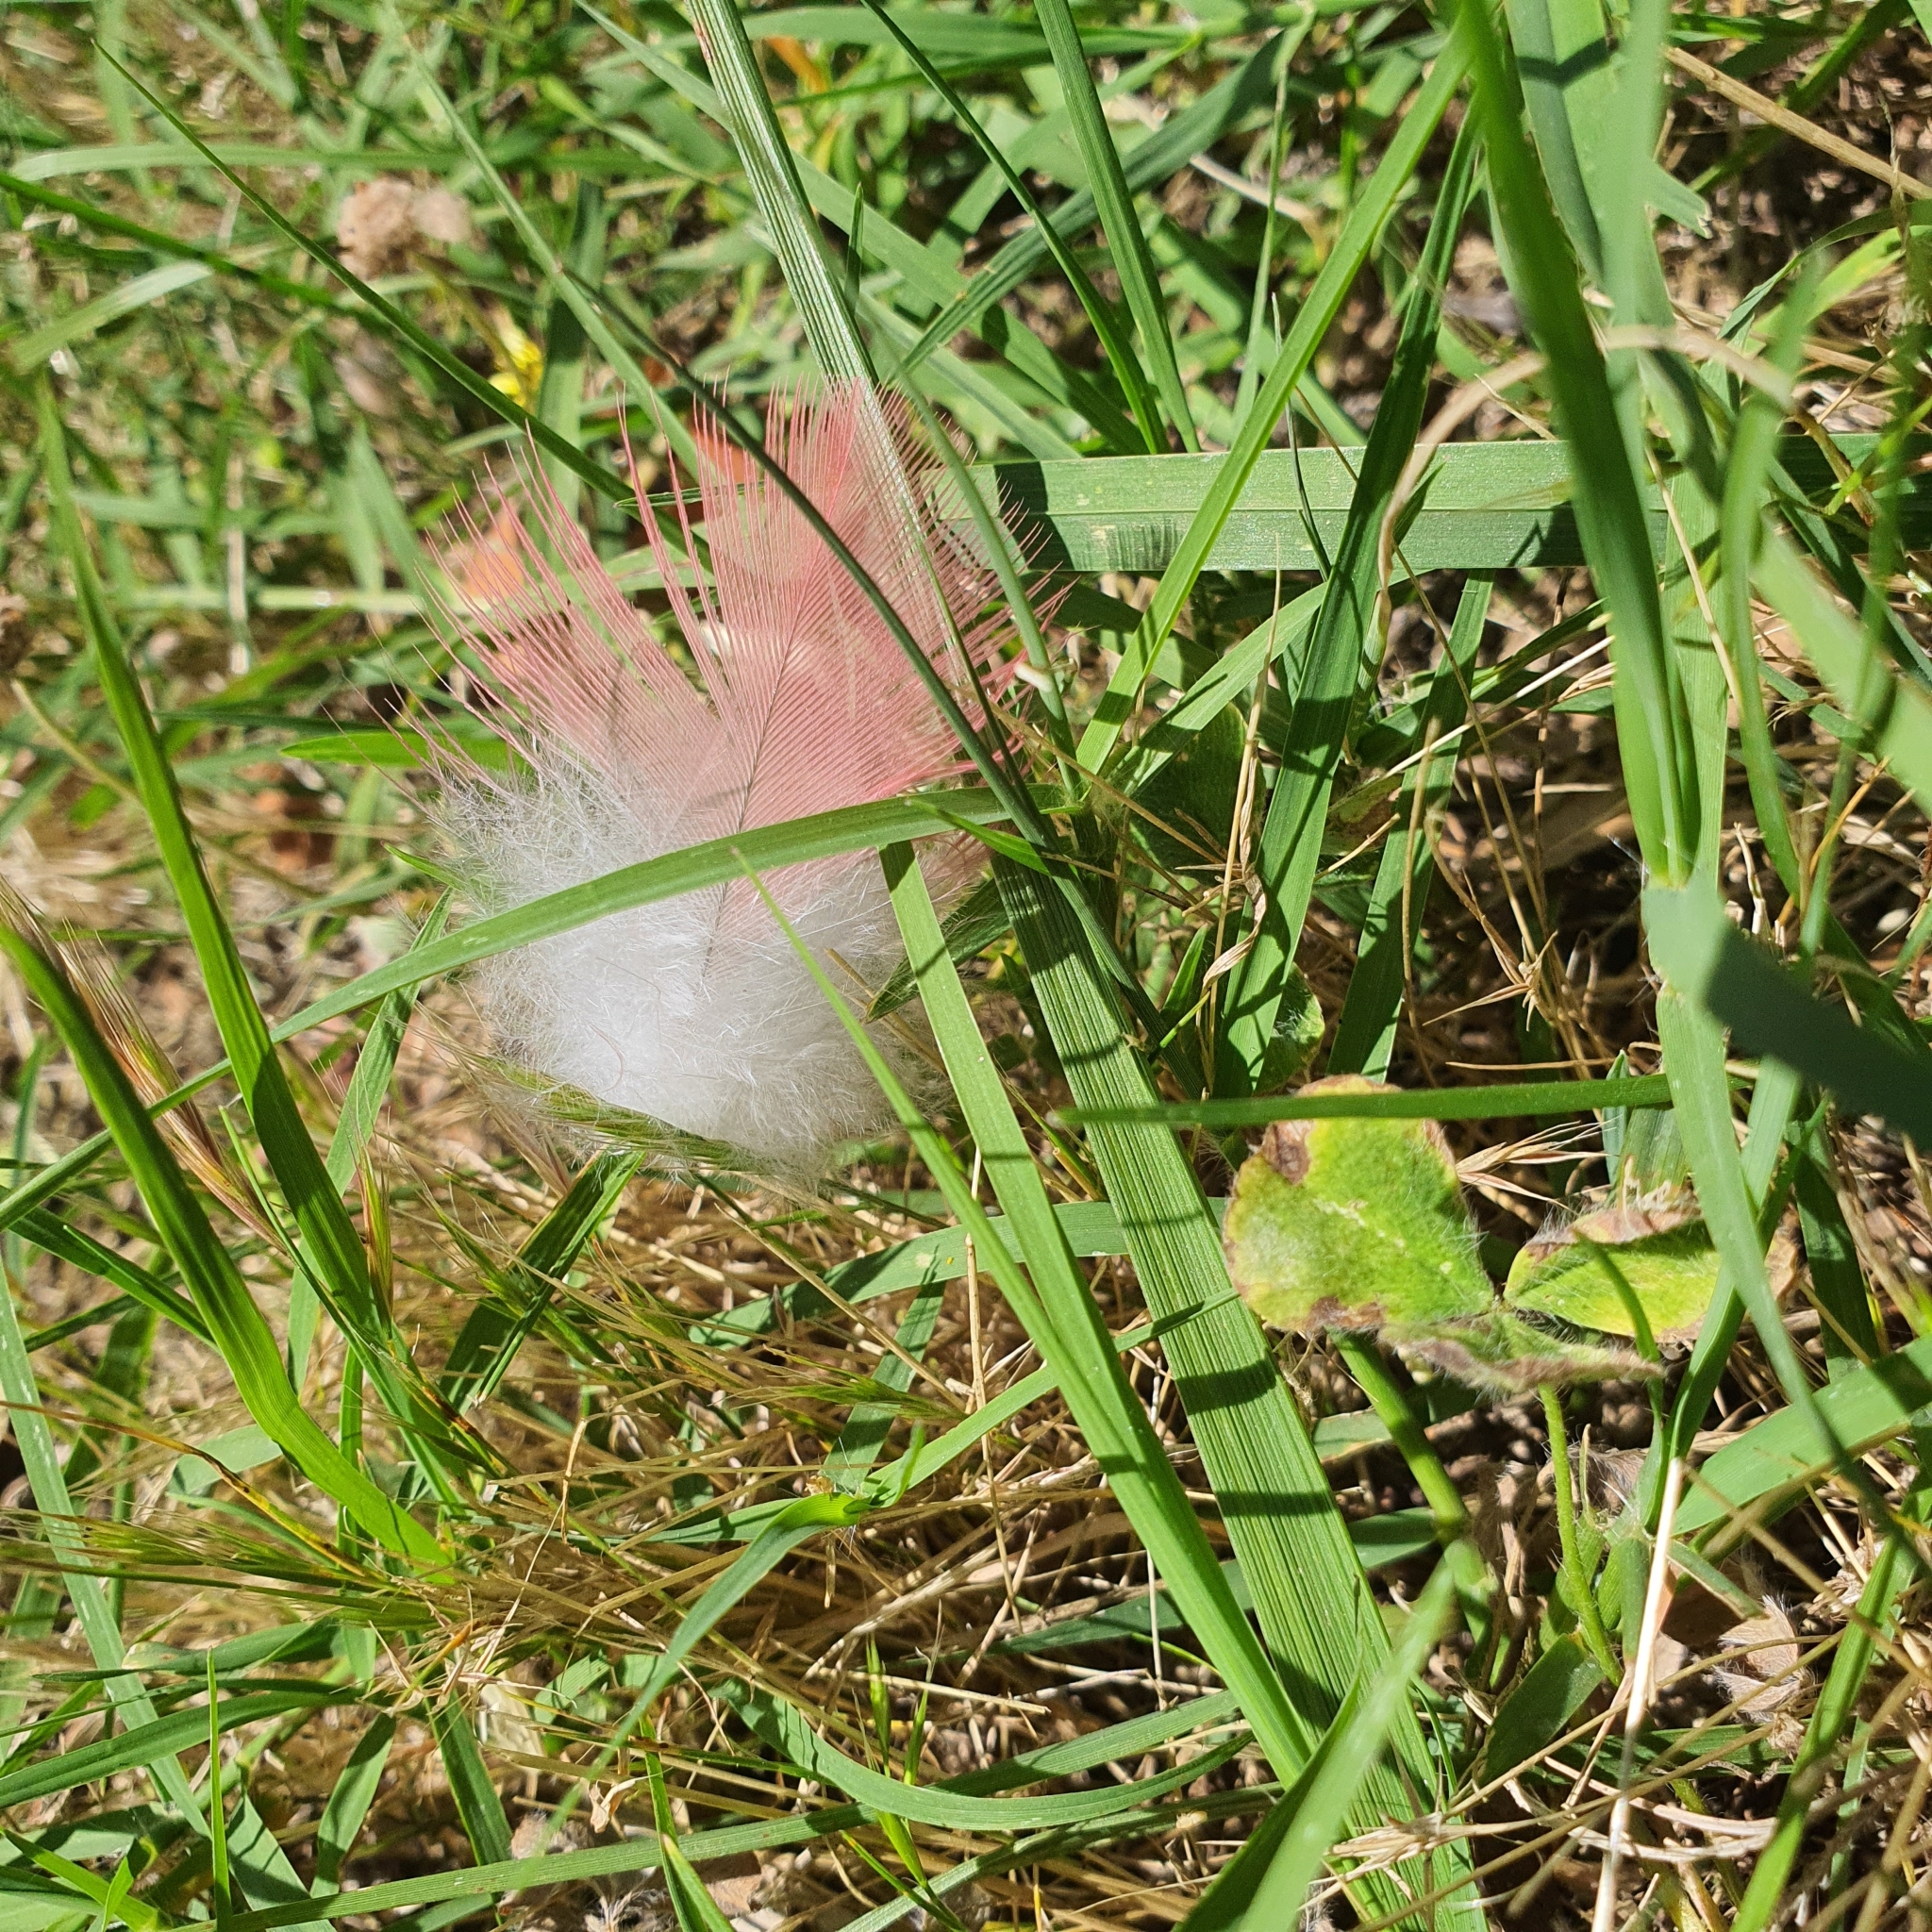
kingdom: Animalia
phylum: Chordata
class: Aves
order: Psittaciformes
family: Psittacidae
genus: Eolophus
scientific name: Eolophus roseicapilla
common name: Galah
